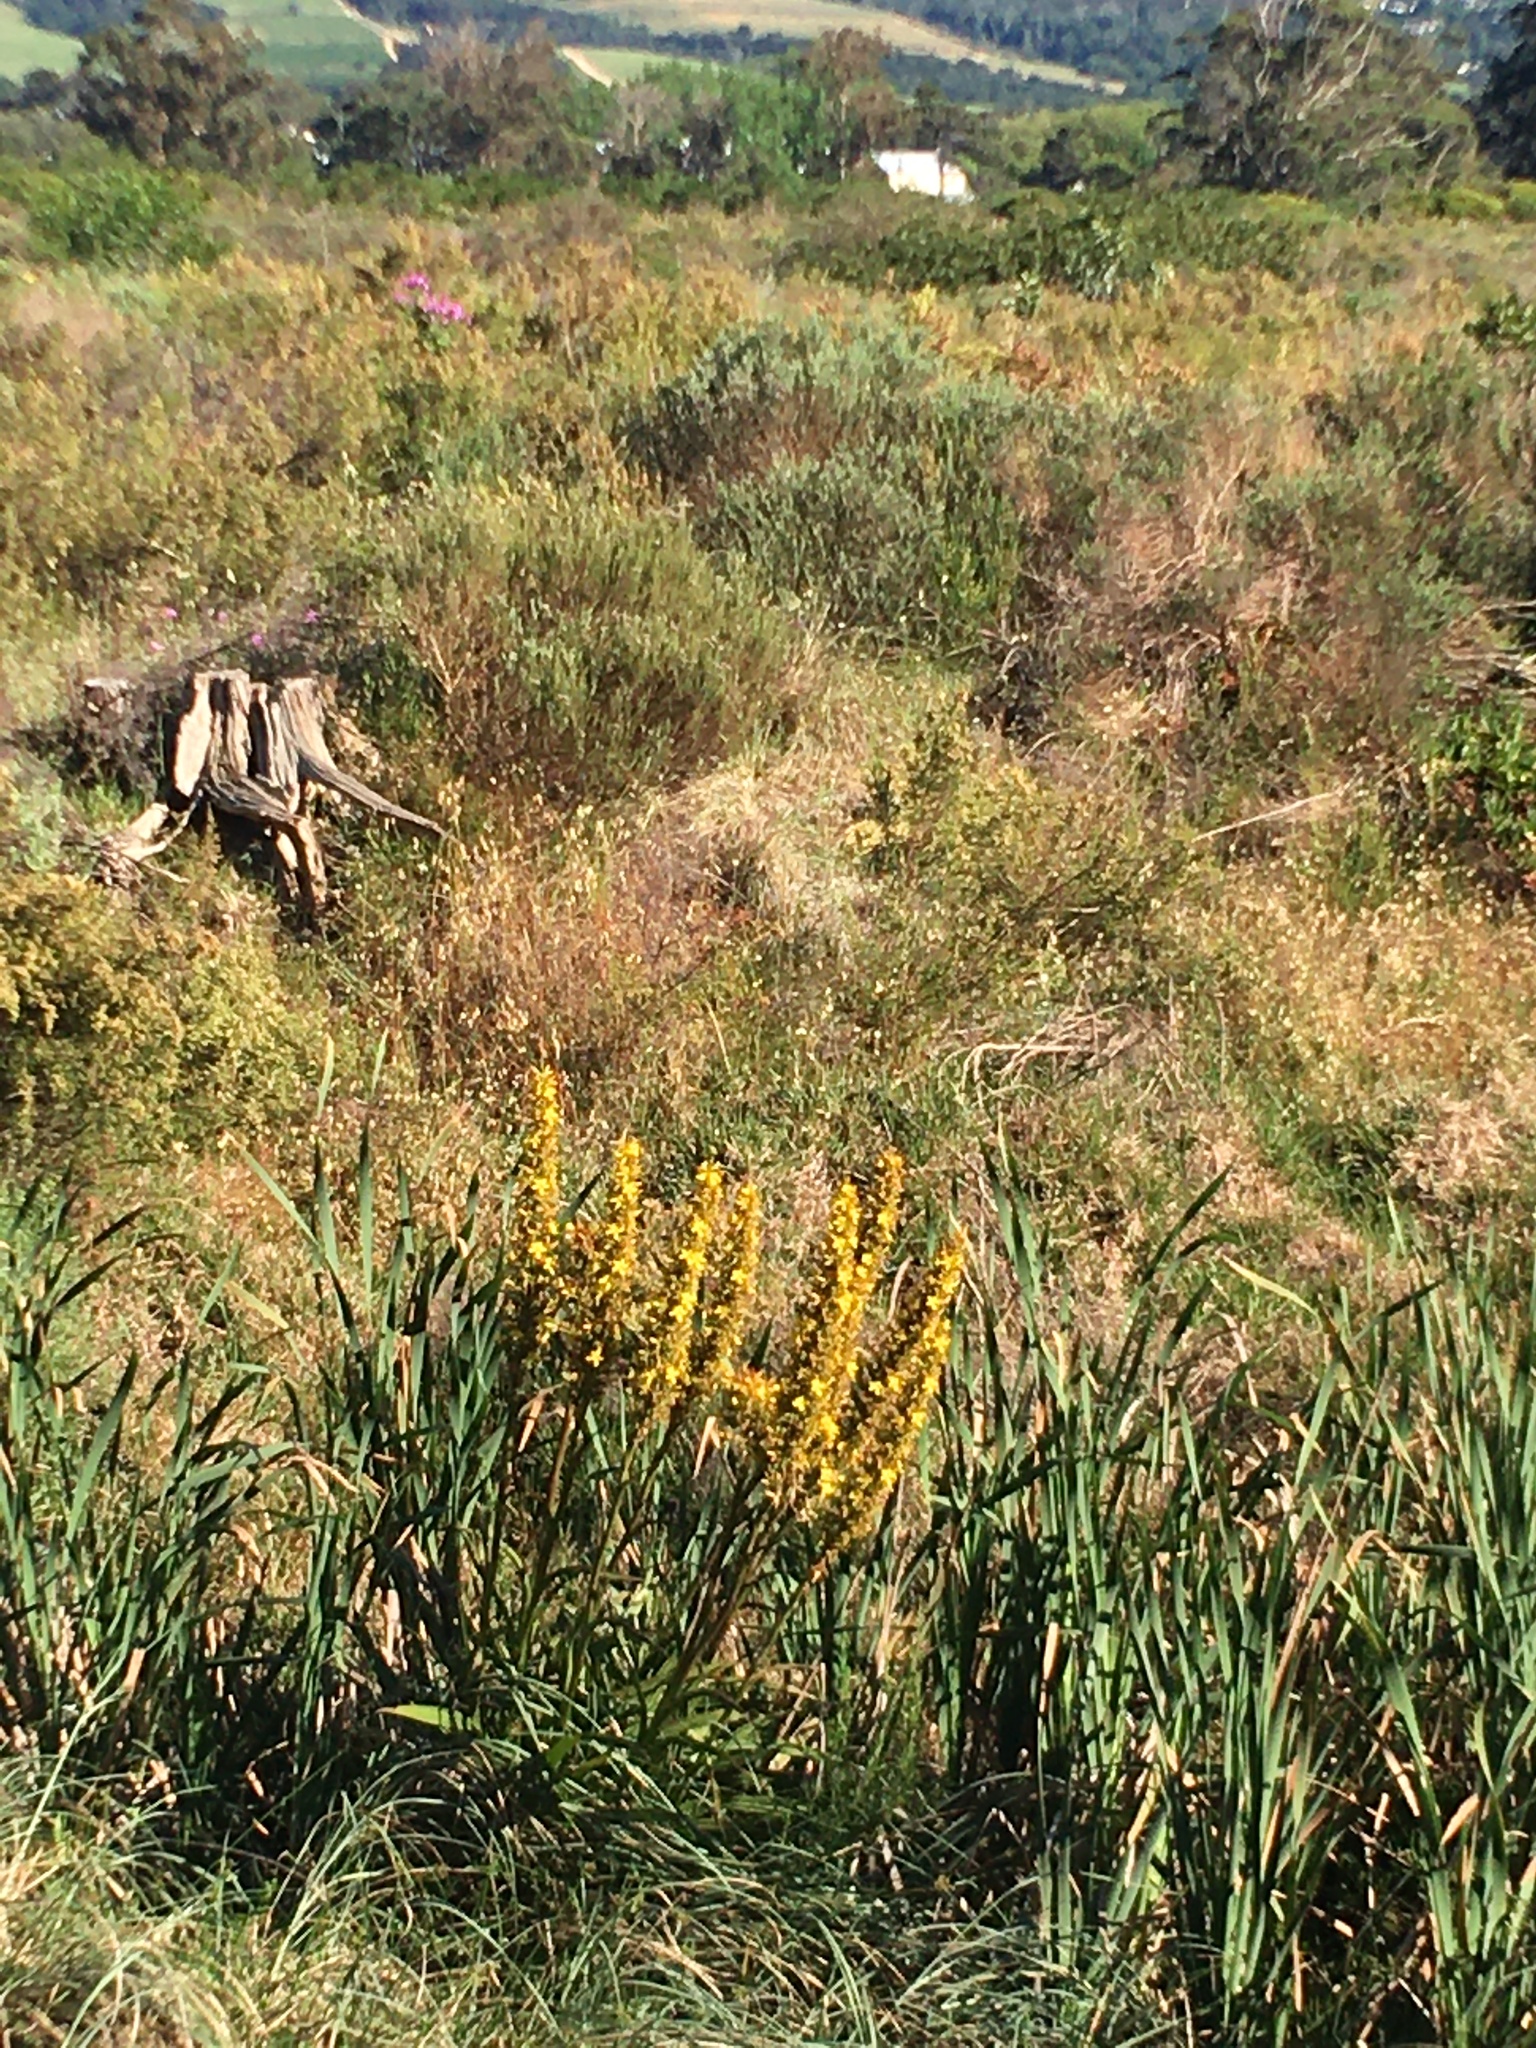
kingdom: Plantae
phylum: Tracheophyta
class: Liliopsida
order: Commelinales
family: Haemodoraceae
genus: Wachendorfia
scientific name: Wachendorfia thyrsiflora
